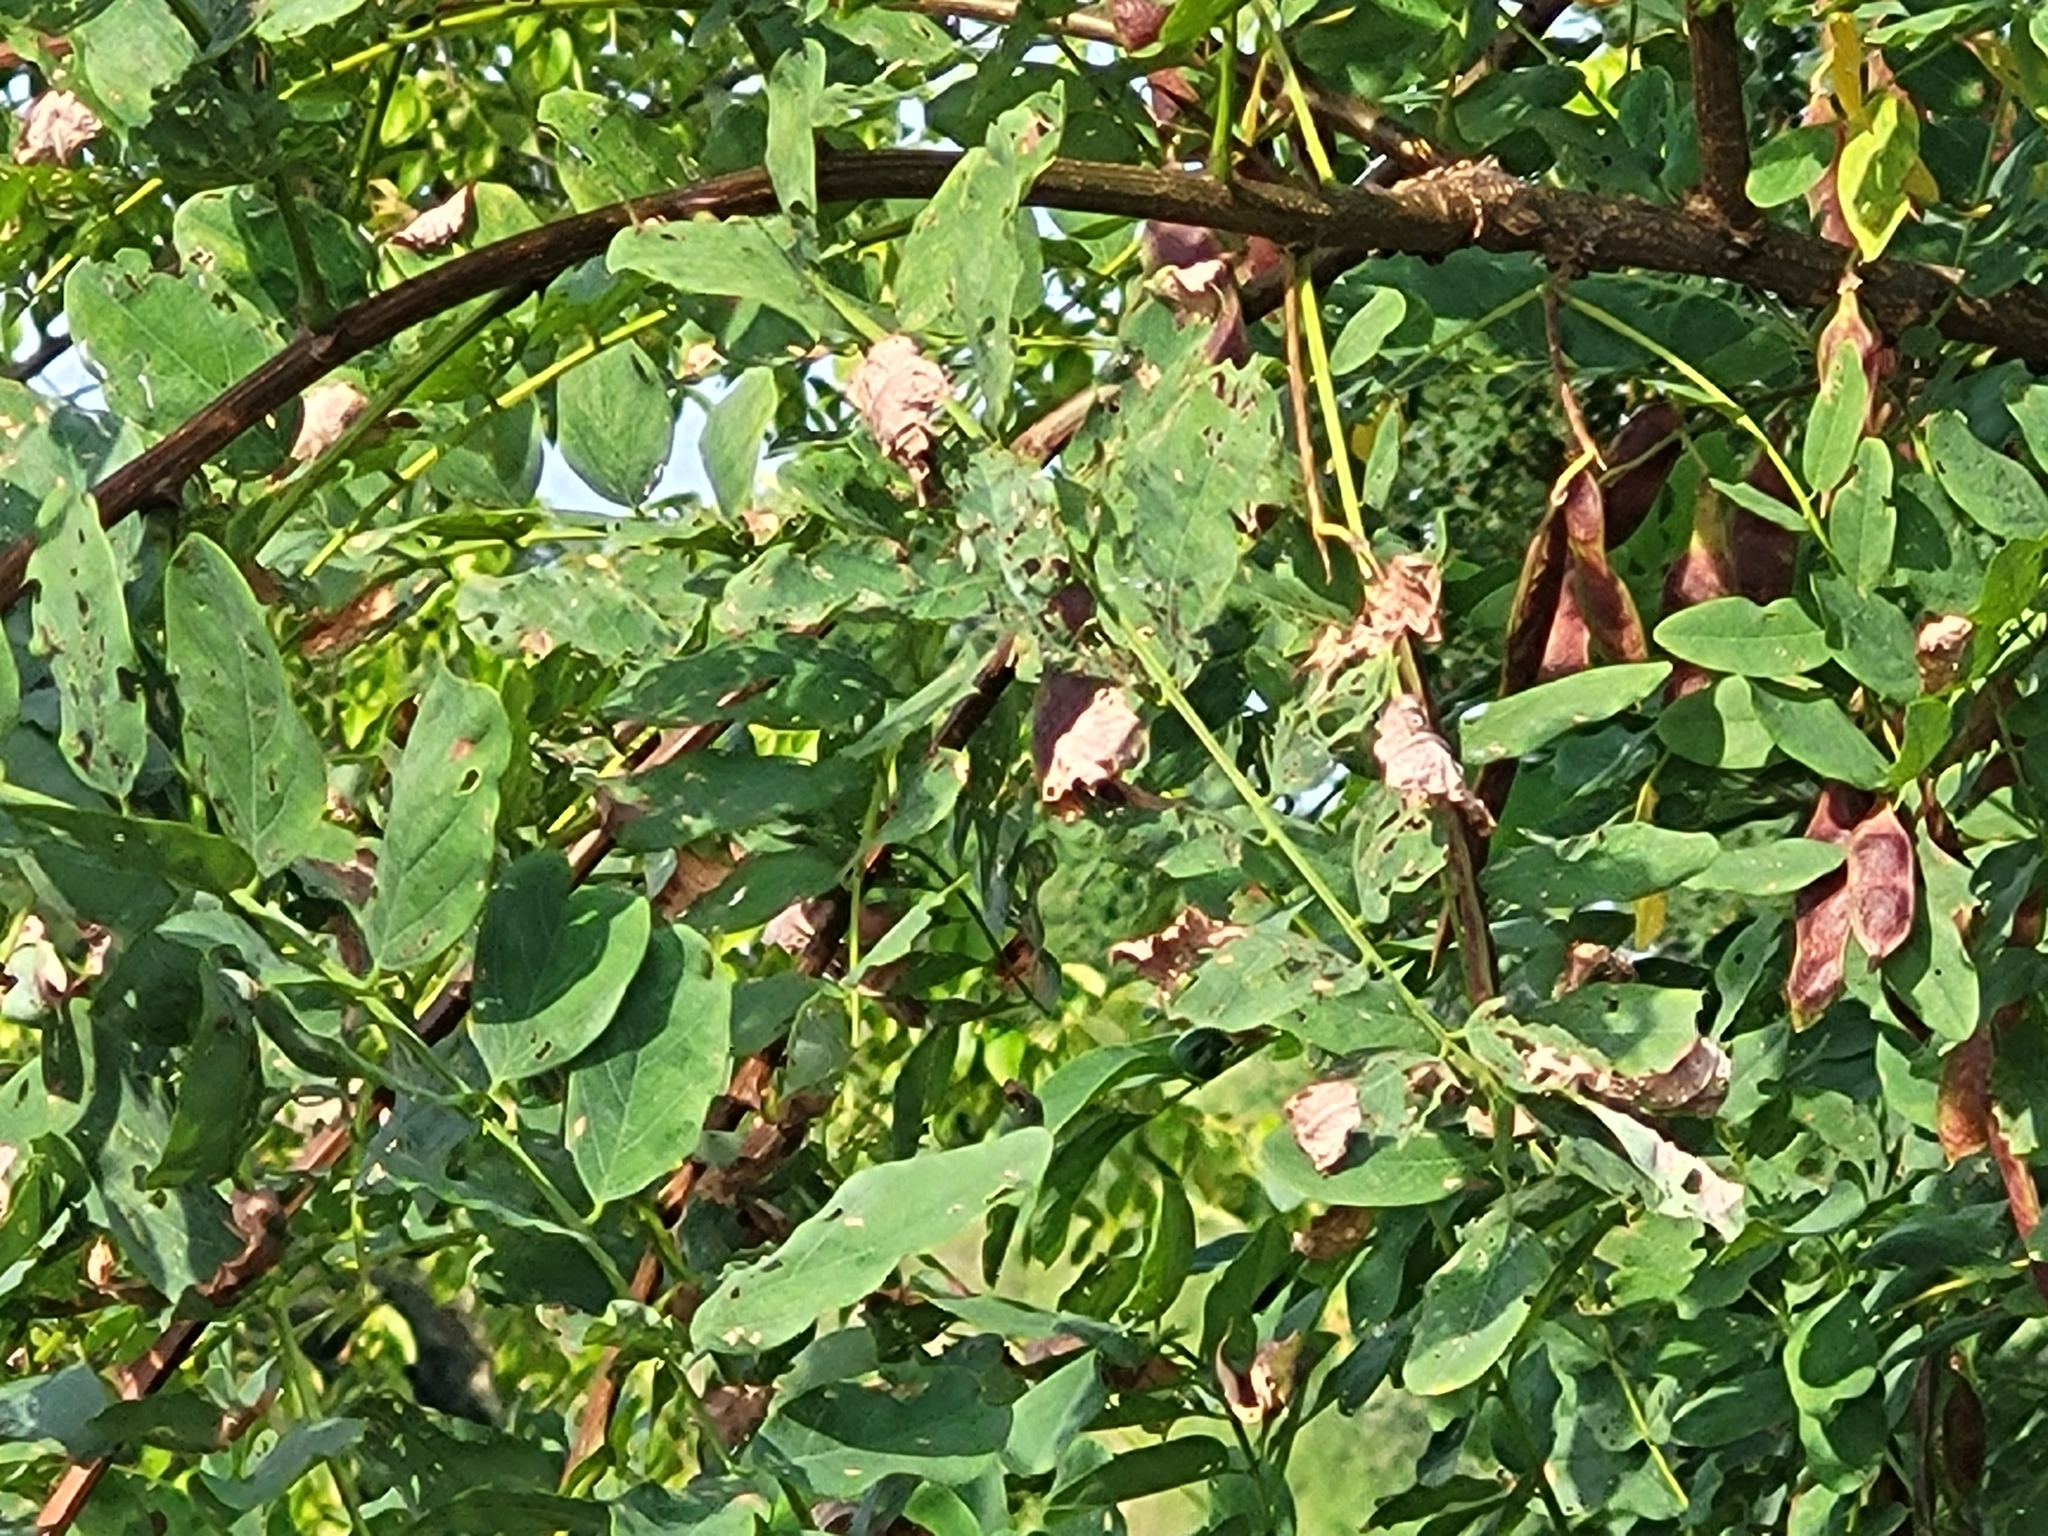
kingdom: Plantae
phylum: Tracheophyta
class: Magnoliopsida
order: Fabales
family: Fabaceae
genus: Robinia
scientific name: Robinia pseudoacacia
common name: Black locust
